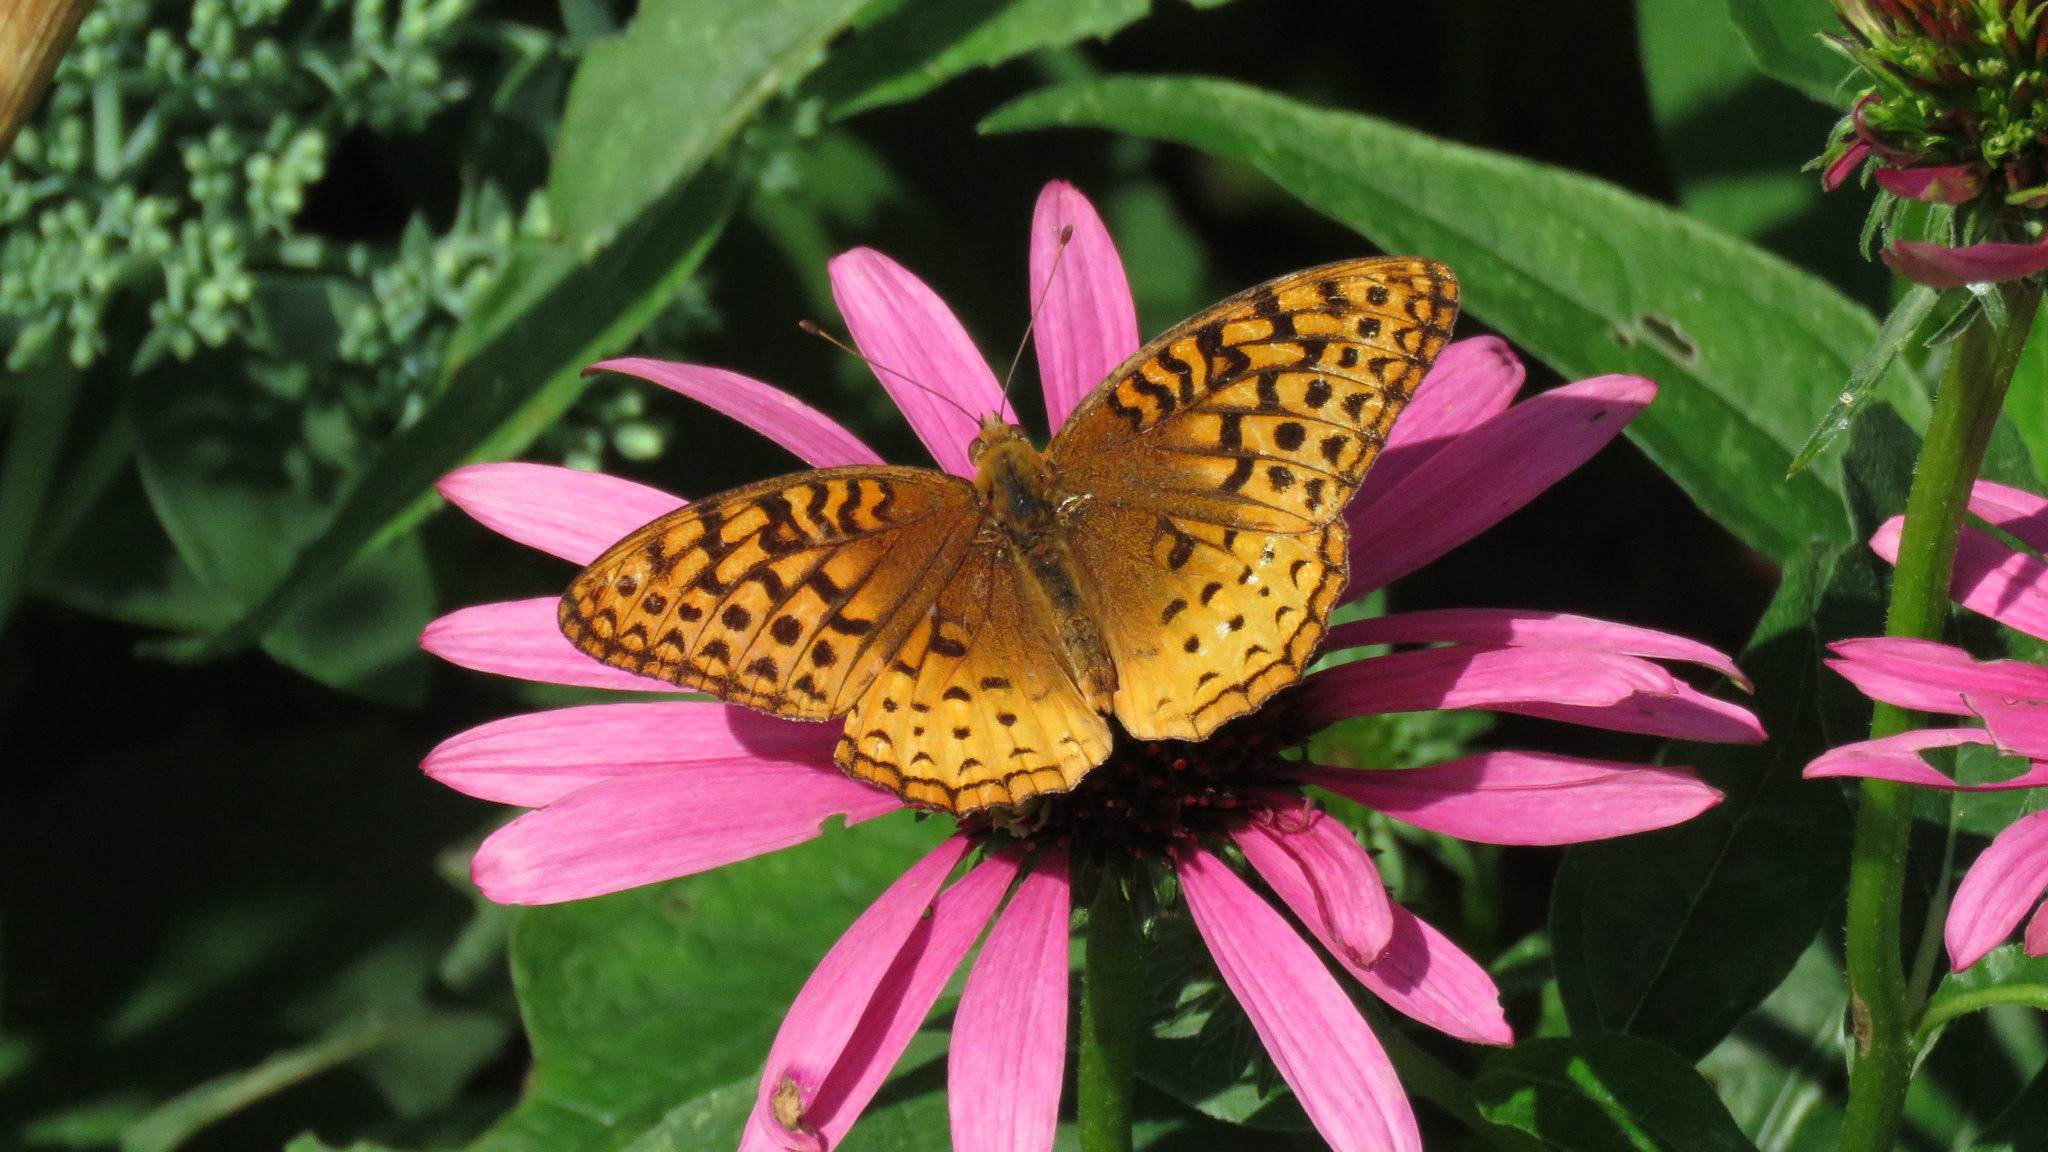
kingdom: Animalia
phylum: Arthropoda
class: Insecta
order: Lepidoptera
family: Nymphalidae
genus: Speyeria
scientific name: Speyeria cybele
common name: Great spangled fritillary
